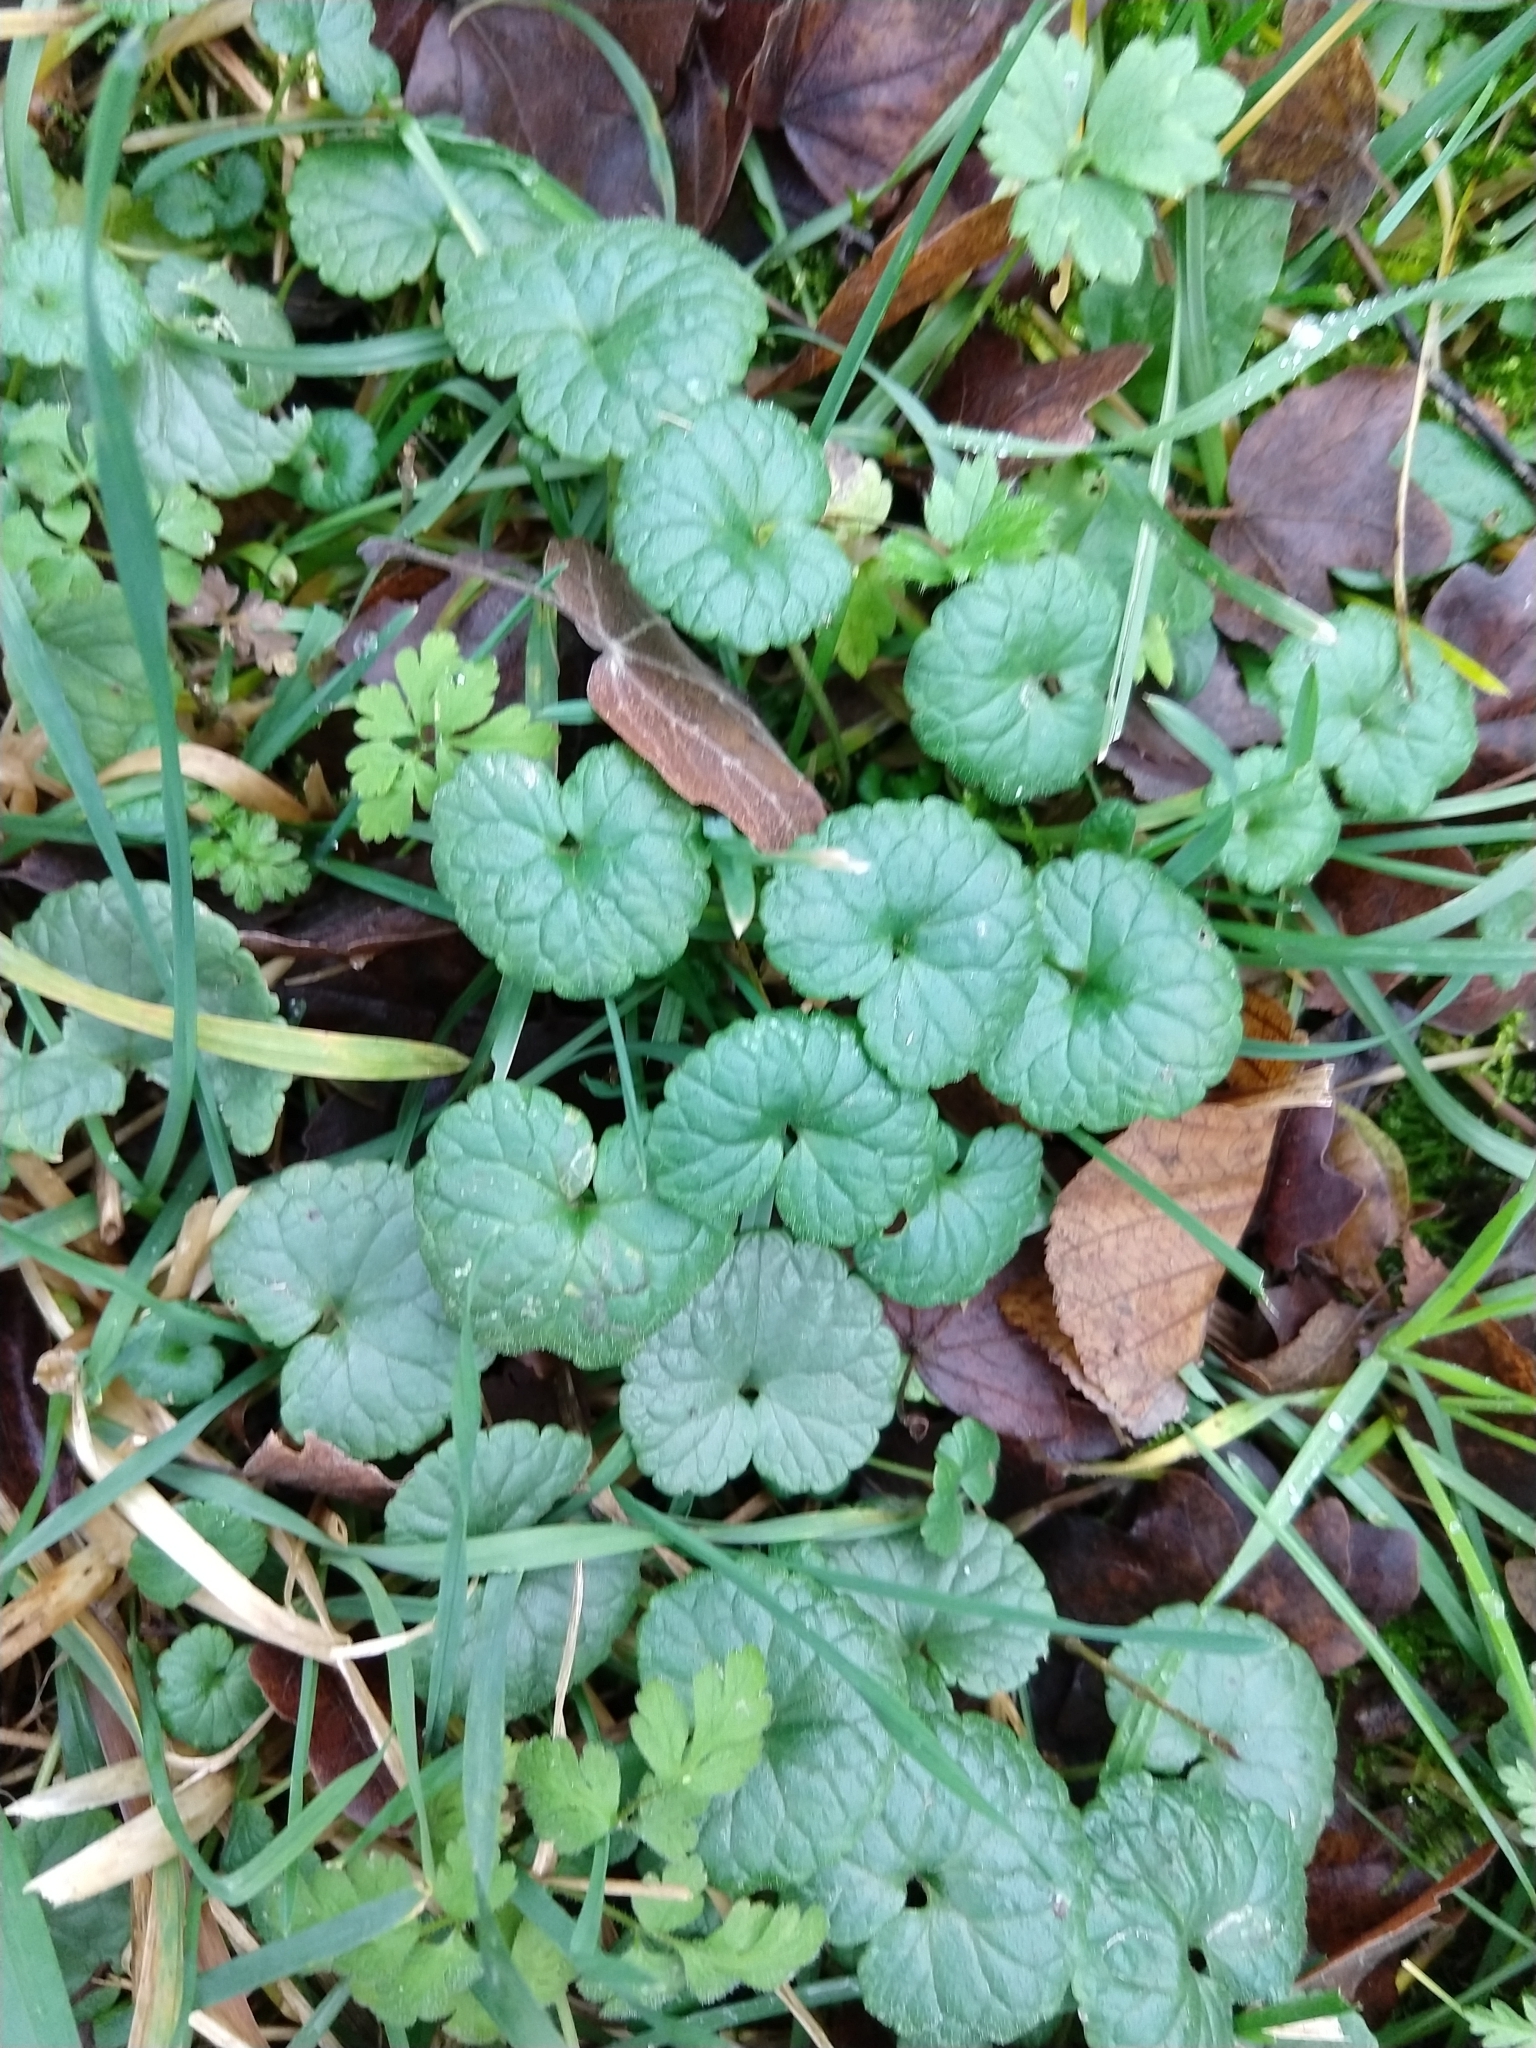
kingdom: Plantae
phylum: Tracheophyta
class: Magnoliopsida
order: Lamiales
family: Lamiaceae
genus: Glechoma
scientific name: Glechoma hederacea
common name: Ground ivy
